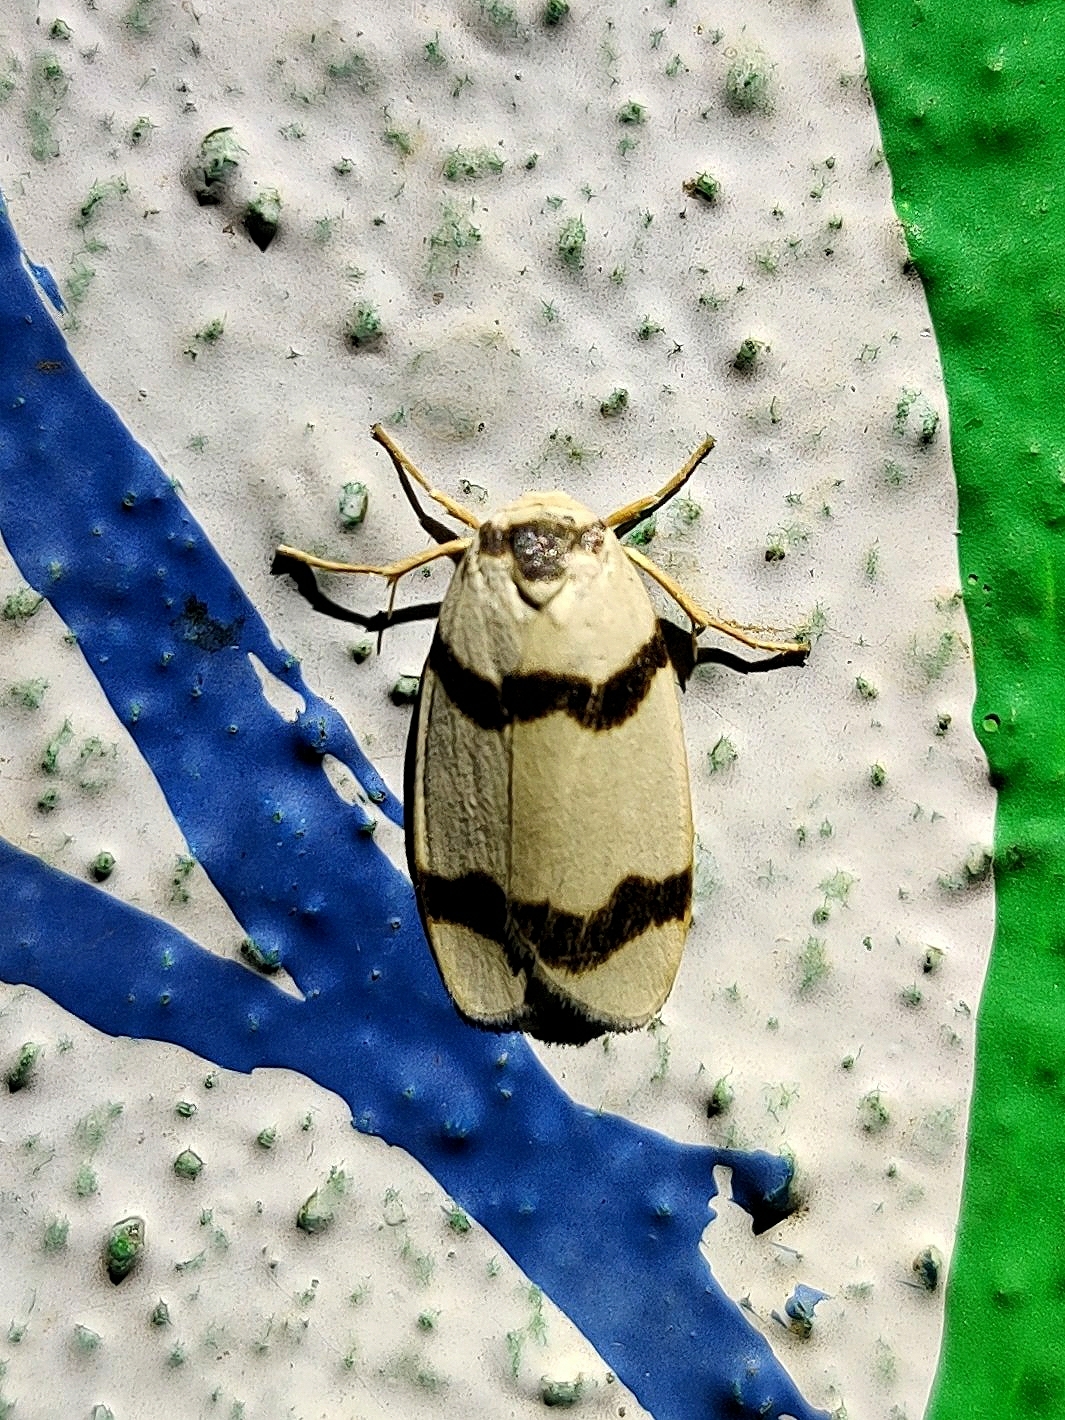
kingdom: Animalia
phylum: Arthropoda
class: Insecta
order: Lepidoptera
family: Erebidae
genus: Padenia
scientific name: Padenia transversa
